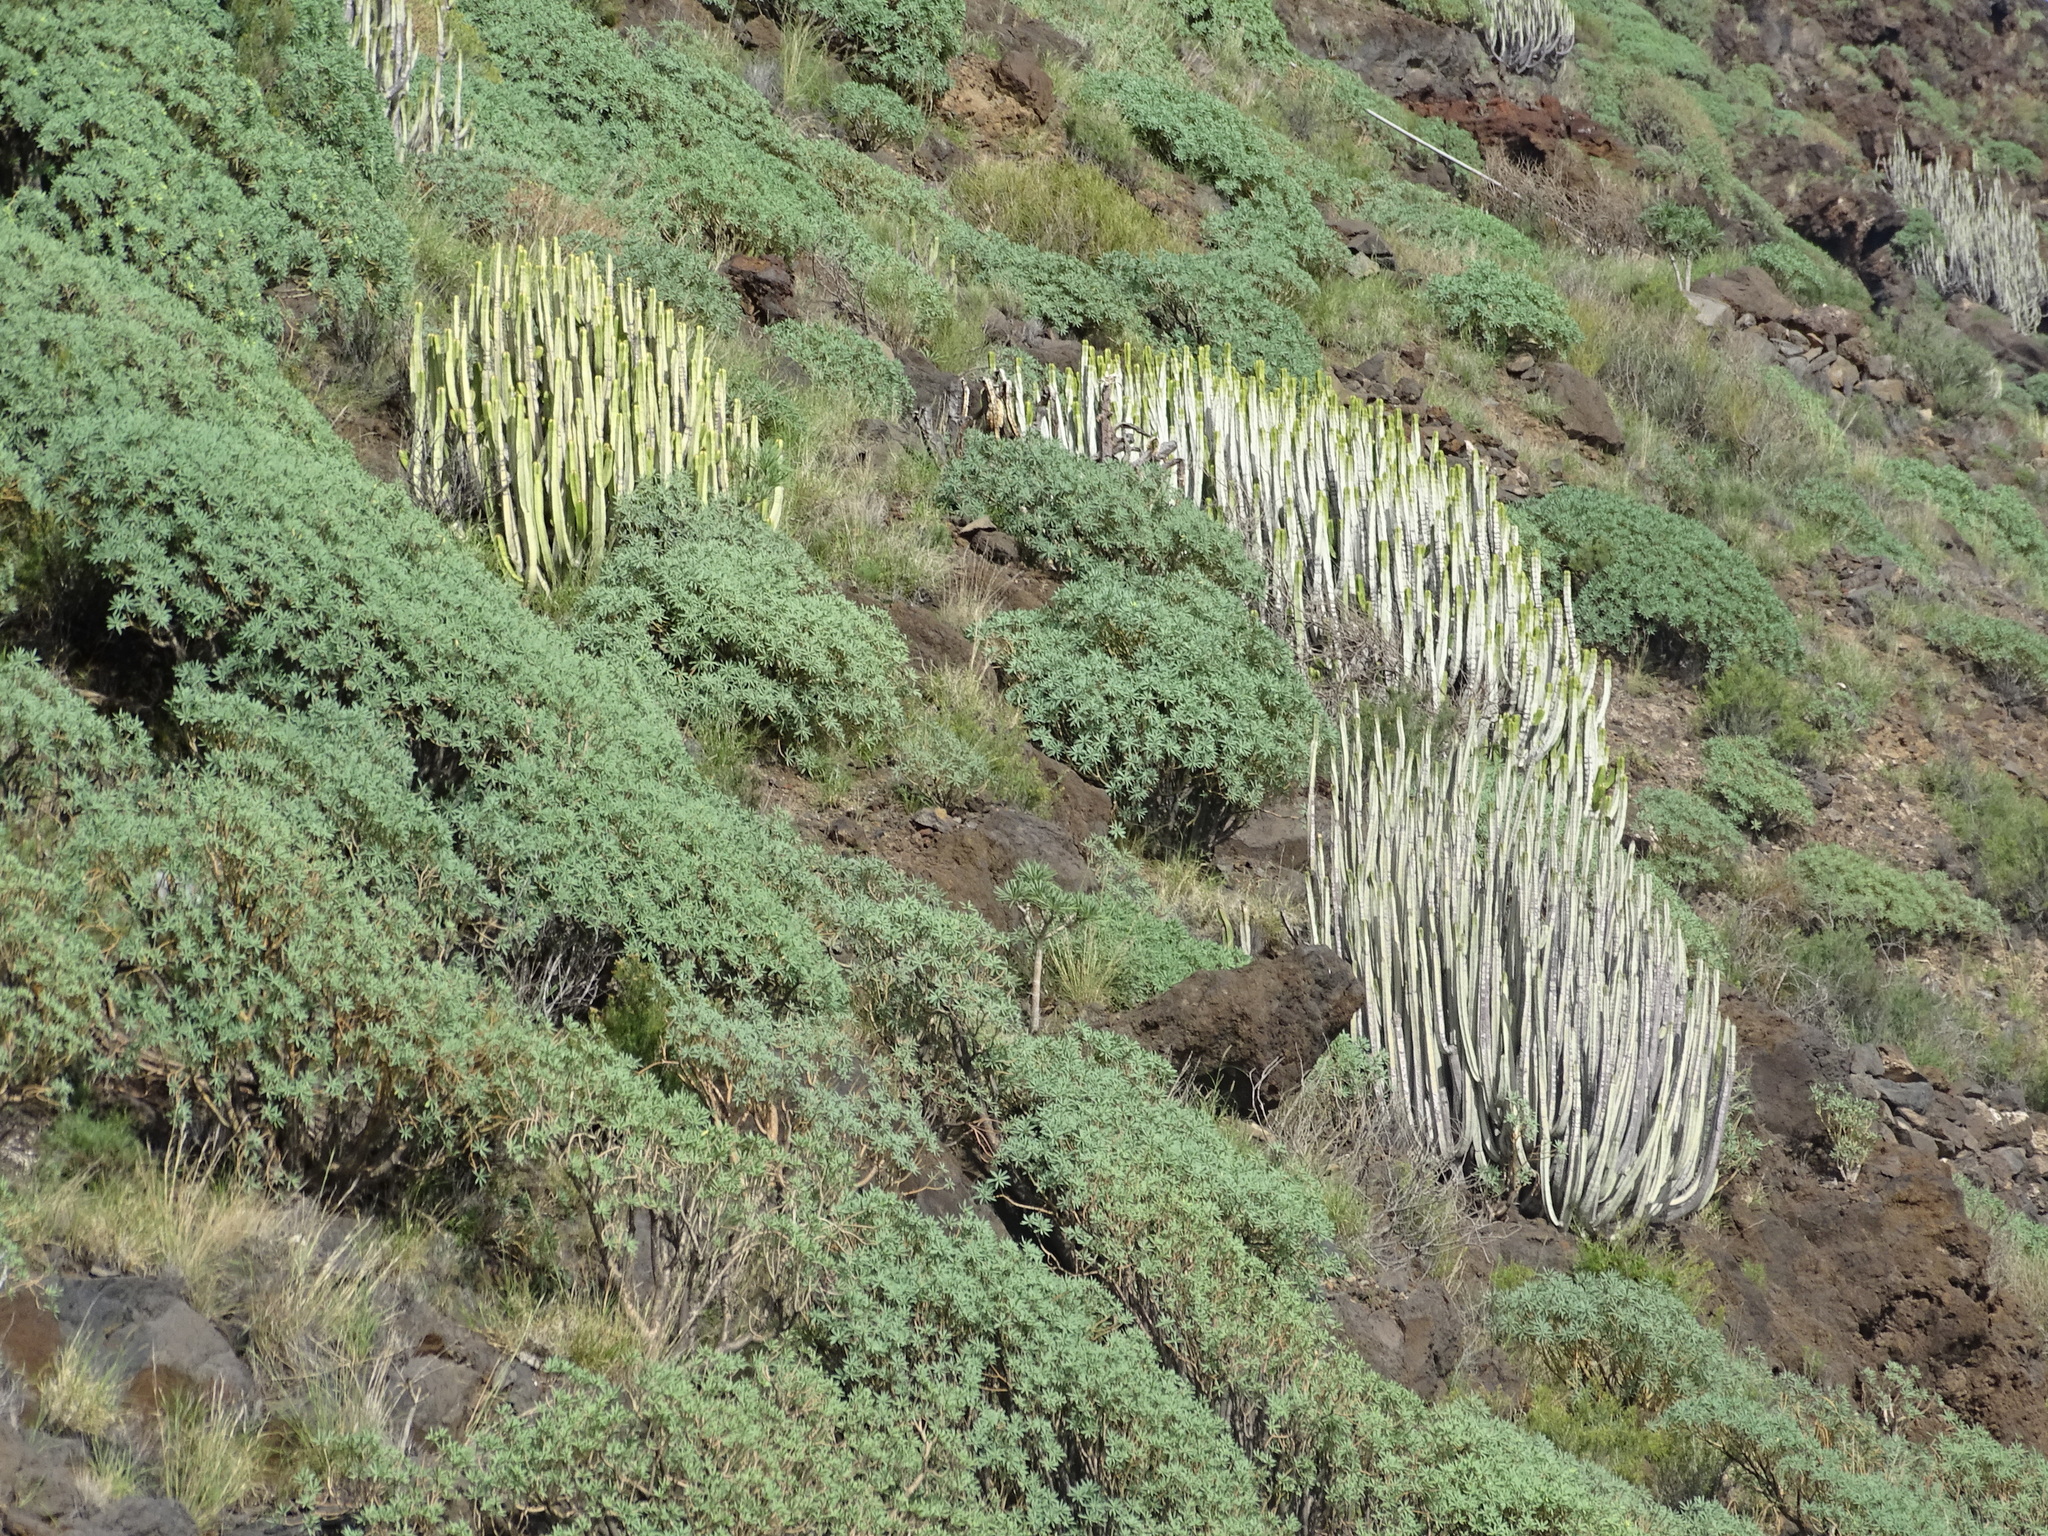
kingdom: Plantae
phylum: Tracheophyta
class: Magnoliopsida
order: Malpighiales
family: Euphorbiaceae
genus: Euphorbia
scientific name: Euphorbia canariensis
